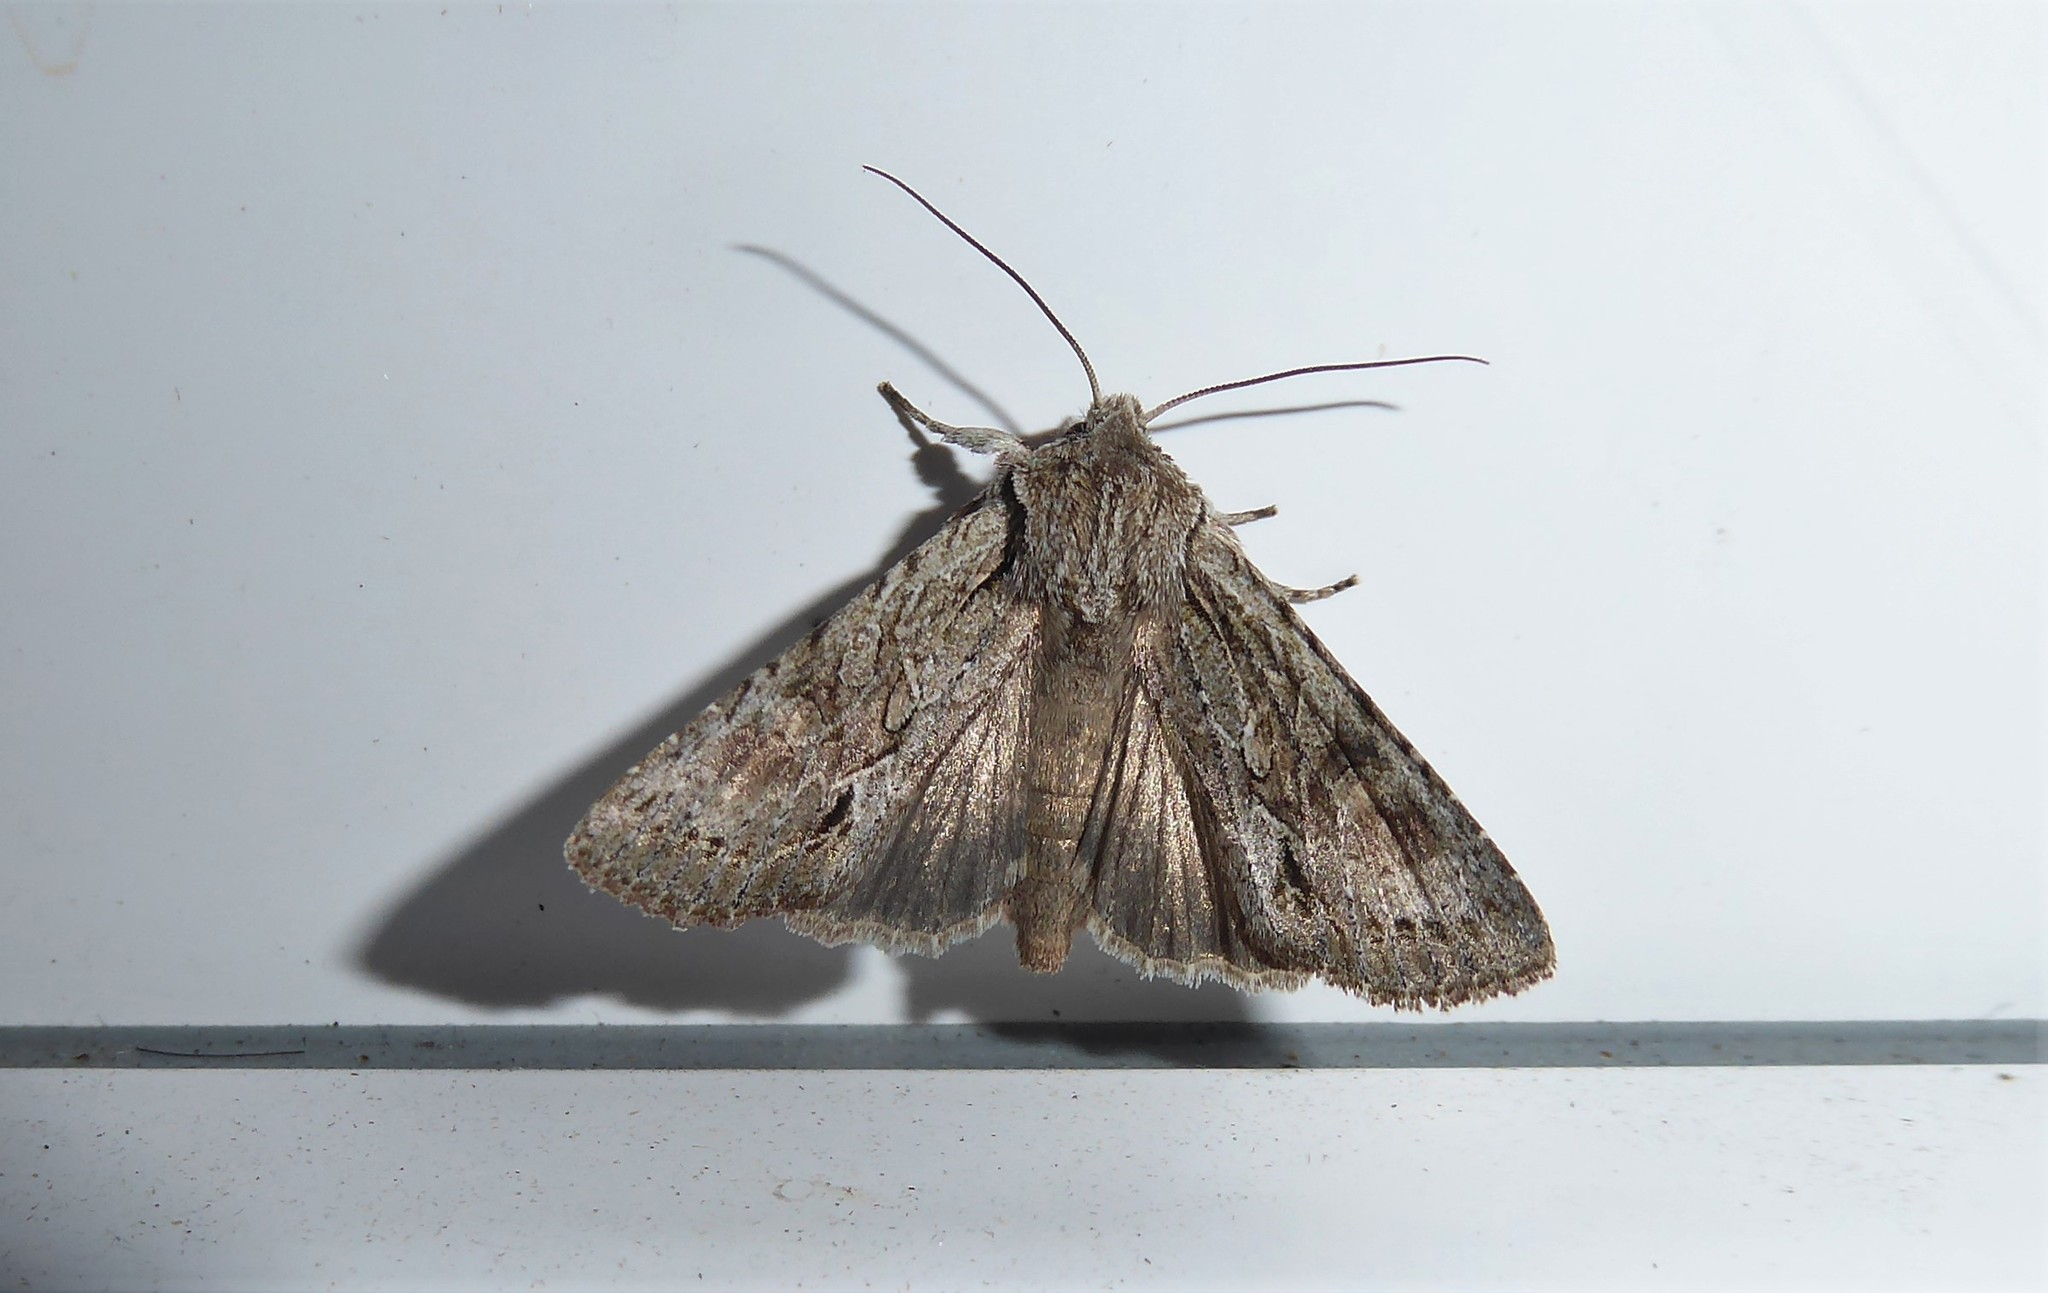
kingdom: Animalia
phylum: Arthropoda
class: Insecta
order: Lepidoptera
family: Noctuidae
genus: Ichneutica
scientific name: Ichneutica mutans
